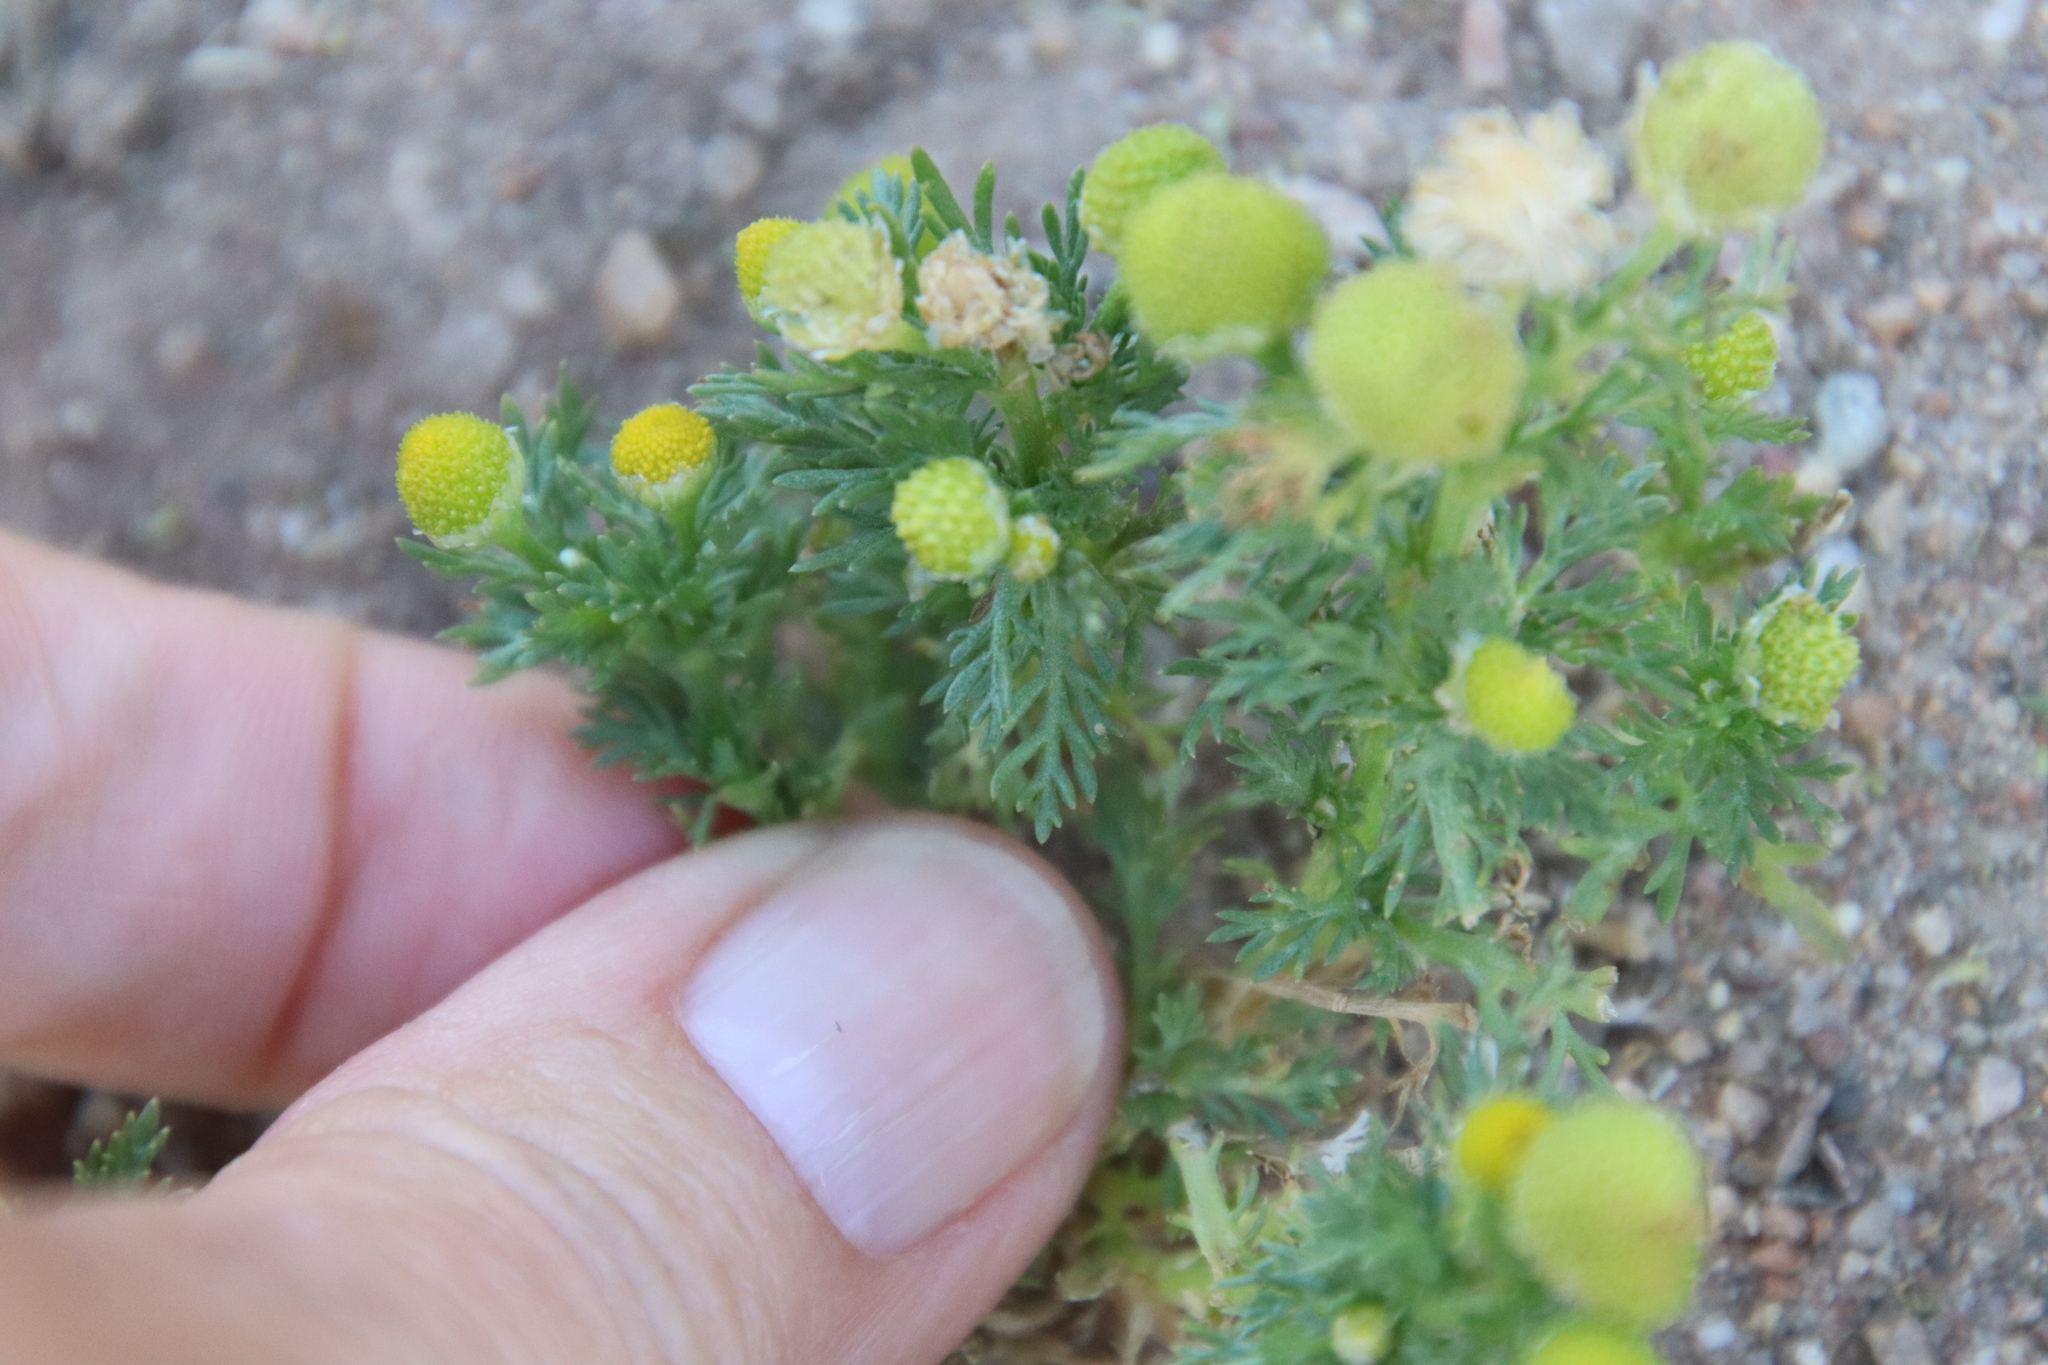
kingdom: Plantae
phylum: Tracheophyta
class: Magnoliopsida
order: Asterales
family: Asteraceae
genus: Matricaria
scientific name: Matricaria discoidea
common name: Disc mayweed
